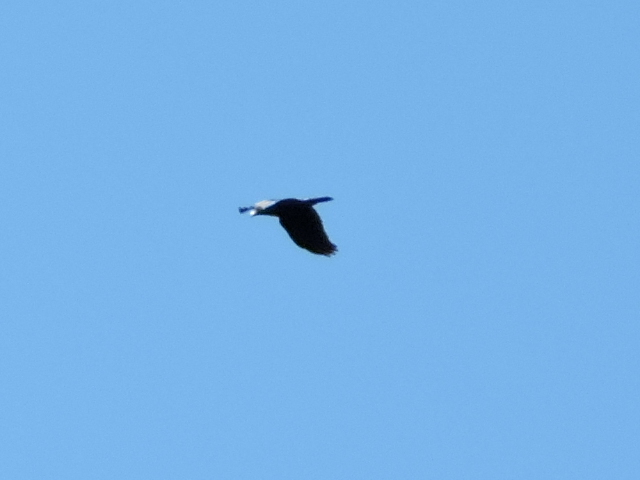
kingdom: Animalia
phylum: Chordata
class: Aves
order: Passeriformes
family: Corvidae
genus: Corvus
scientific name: Corvus brachyrhynchos
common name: American crow
